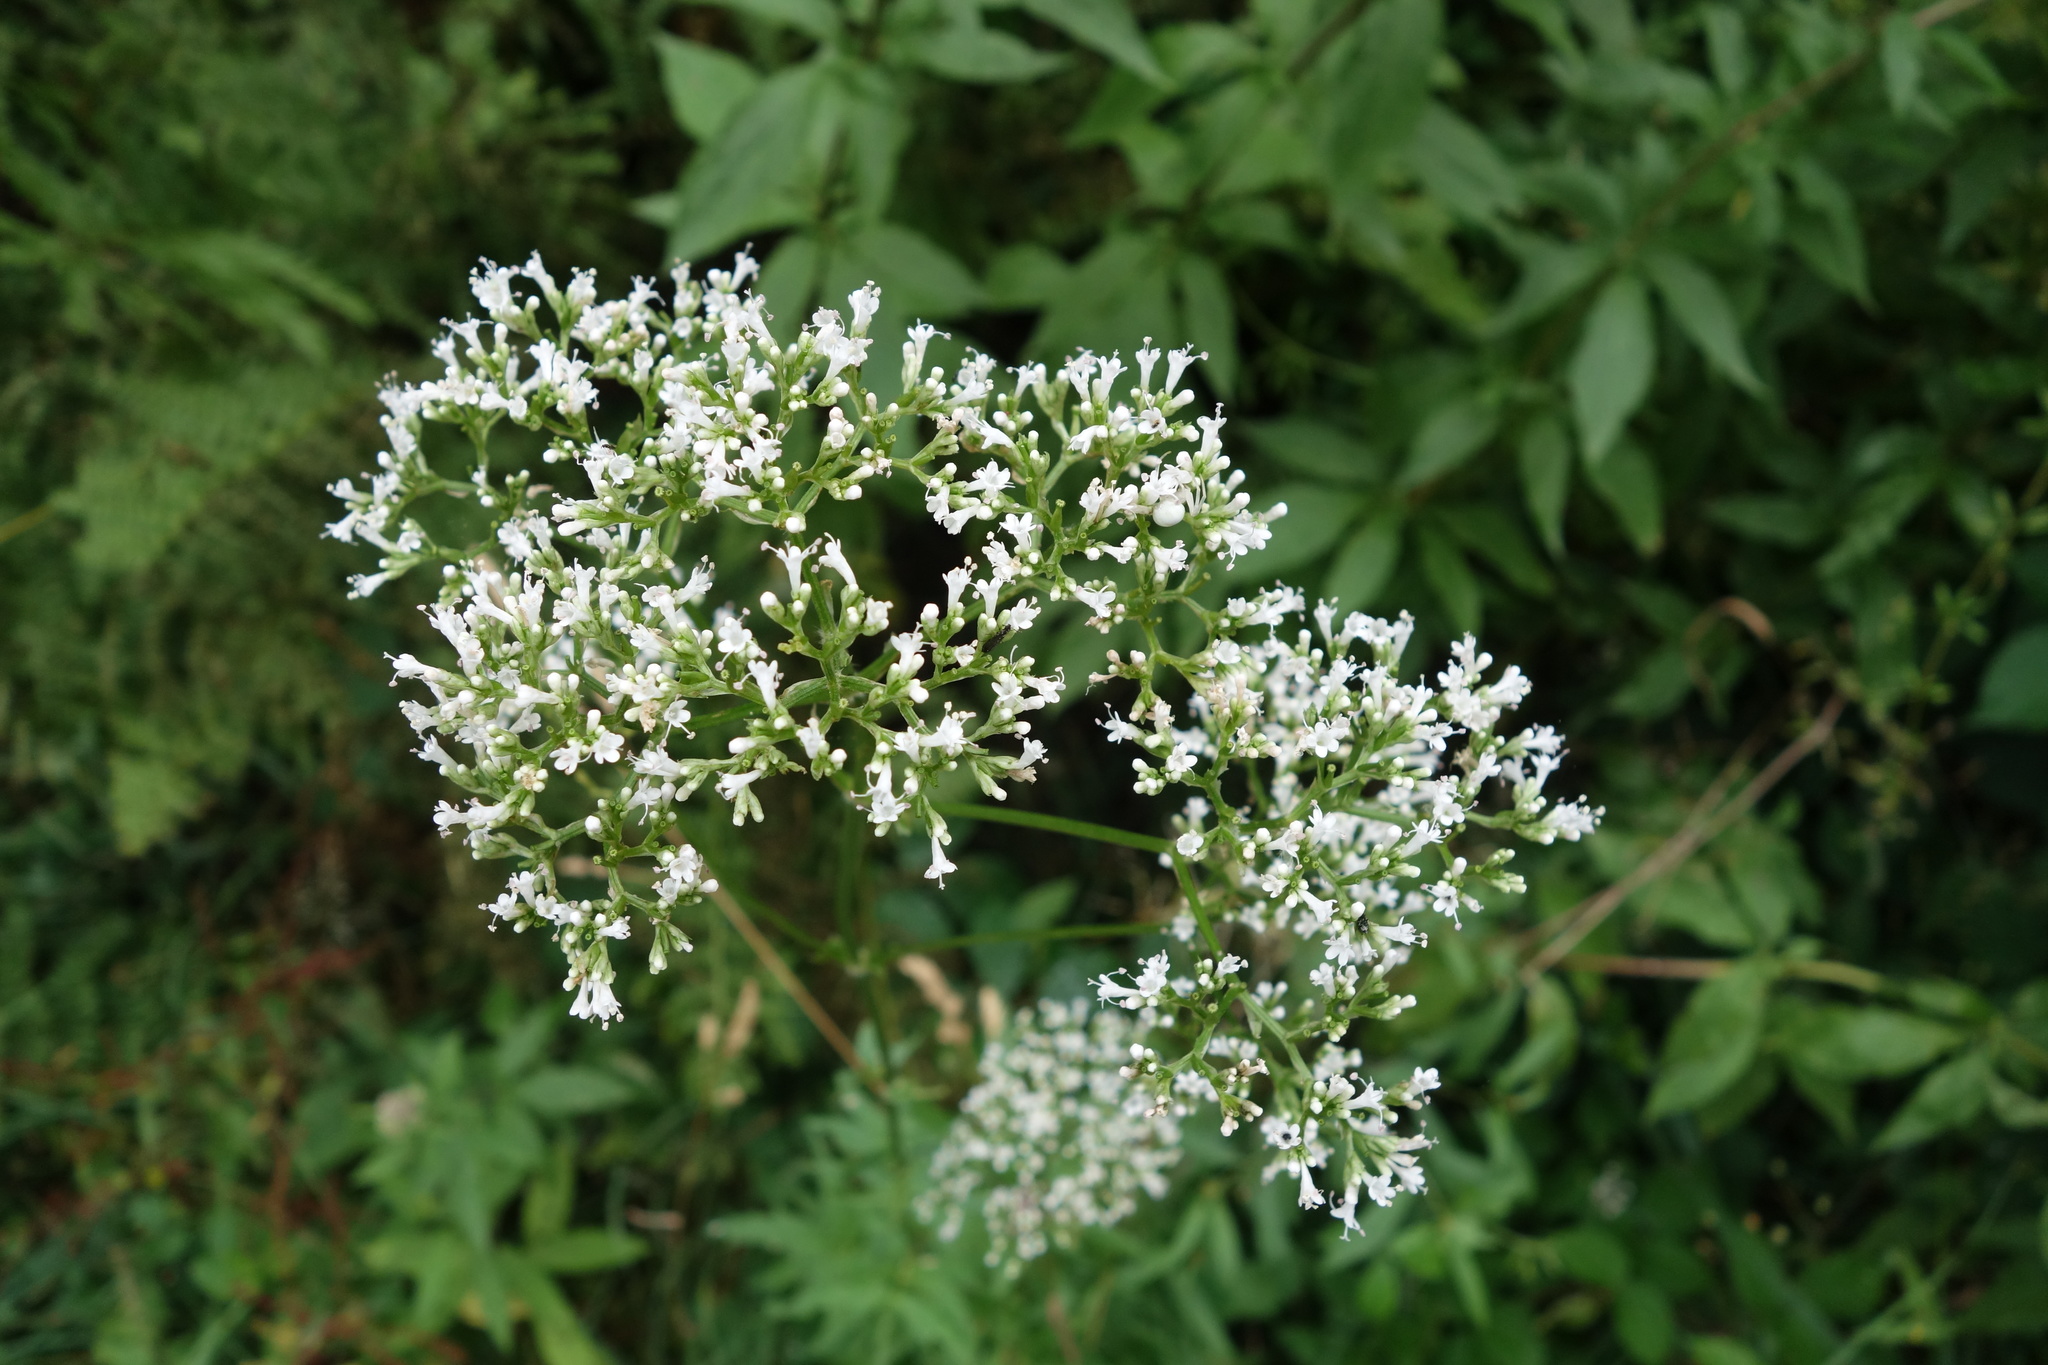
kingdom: Plantae
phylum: Tracheophyta
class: Magnoliopsida
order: Dipsacales
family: Caprifoliaceae
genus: Valeriana
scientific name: Valeriana officinalis
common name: Common valerian
